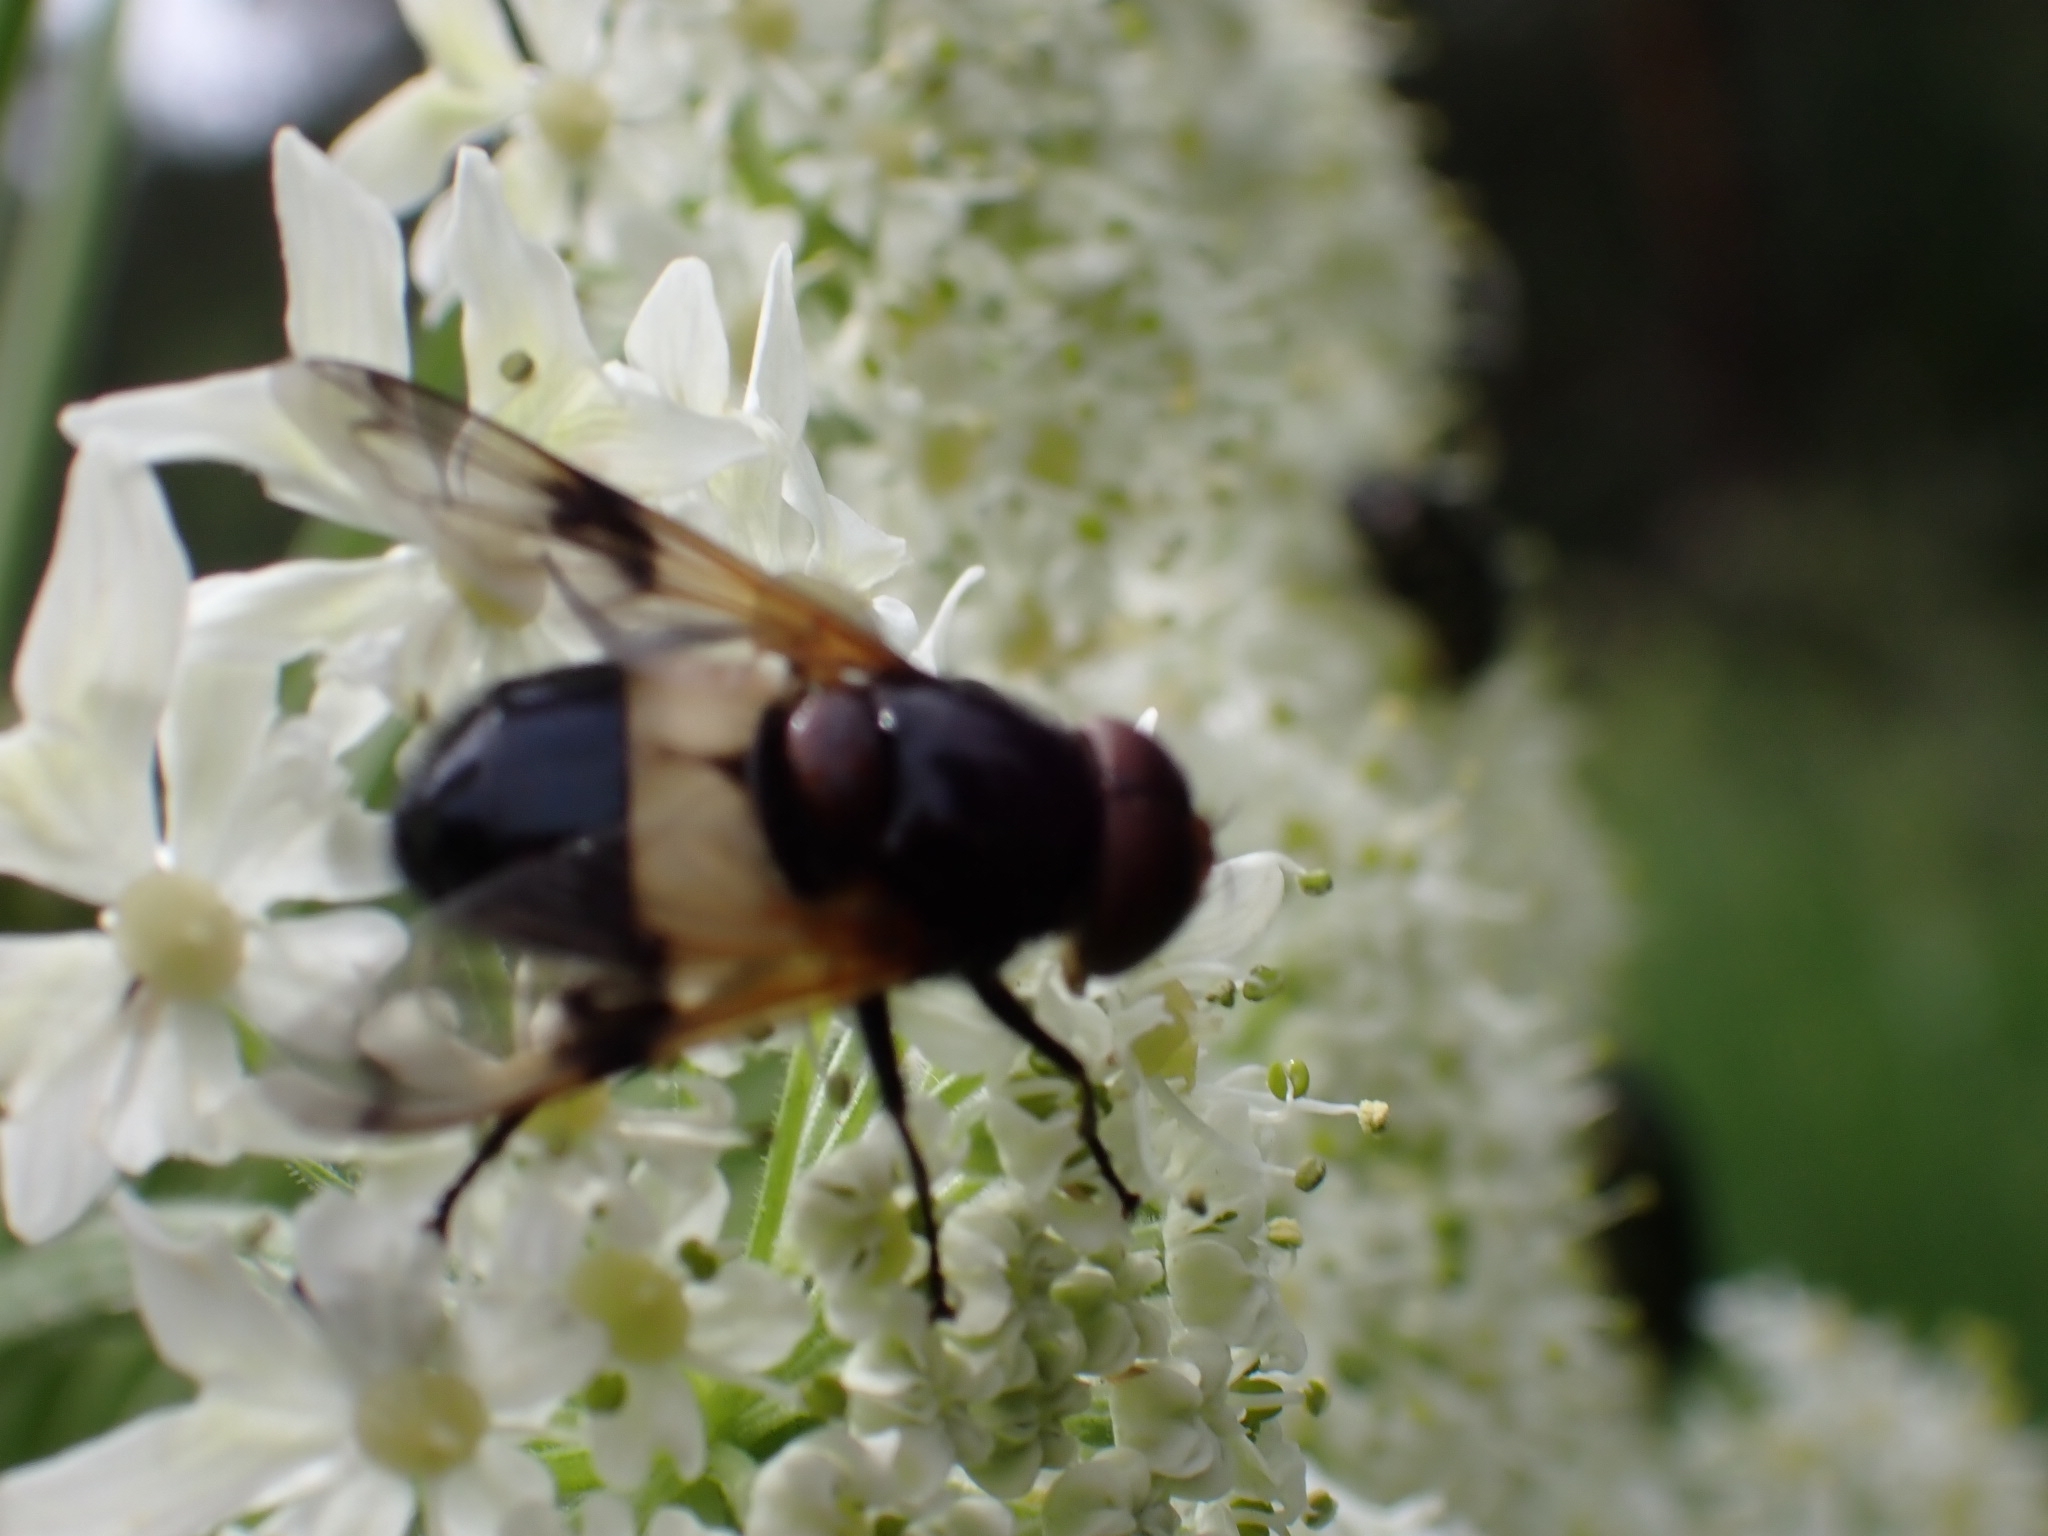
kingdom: Animalia
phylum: Arthropoda
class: Insecta
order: Diptera
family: Syrphidae
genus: Volucella
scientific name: Volucella pellucens
